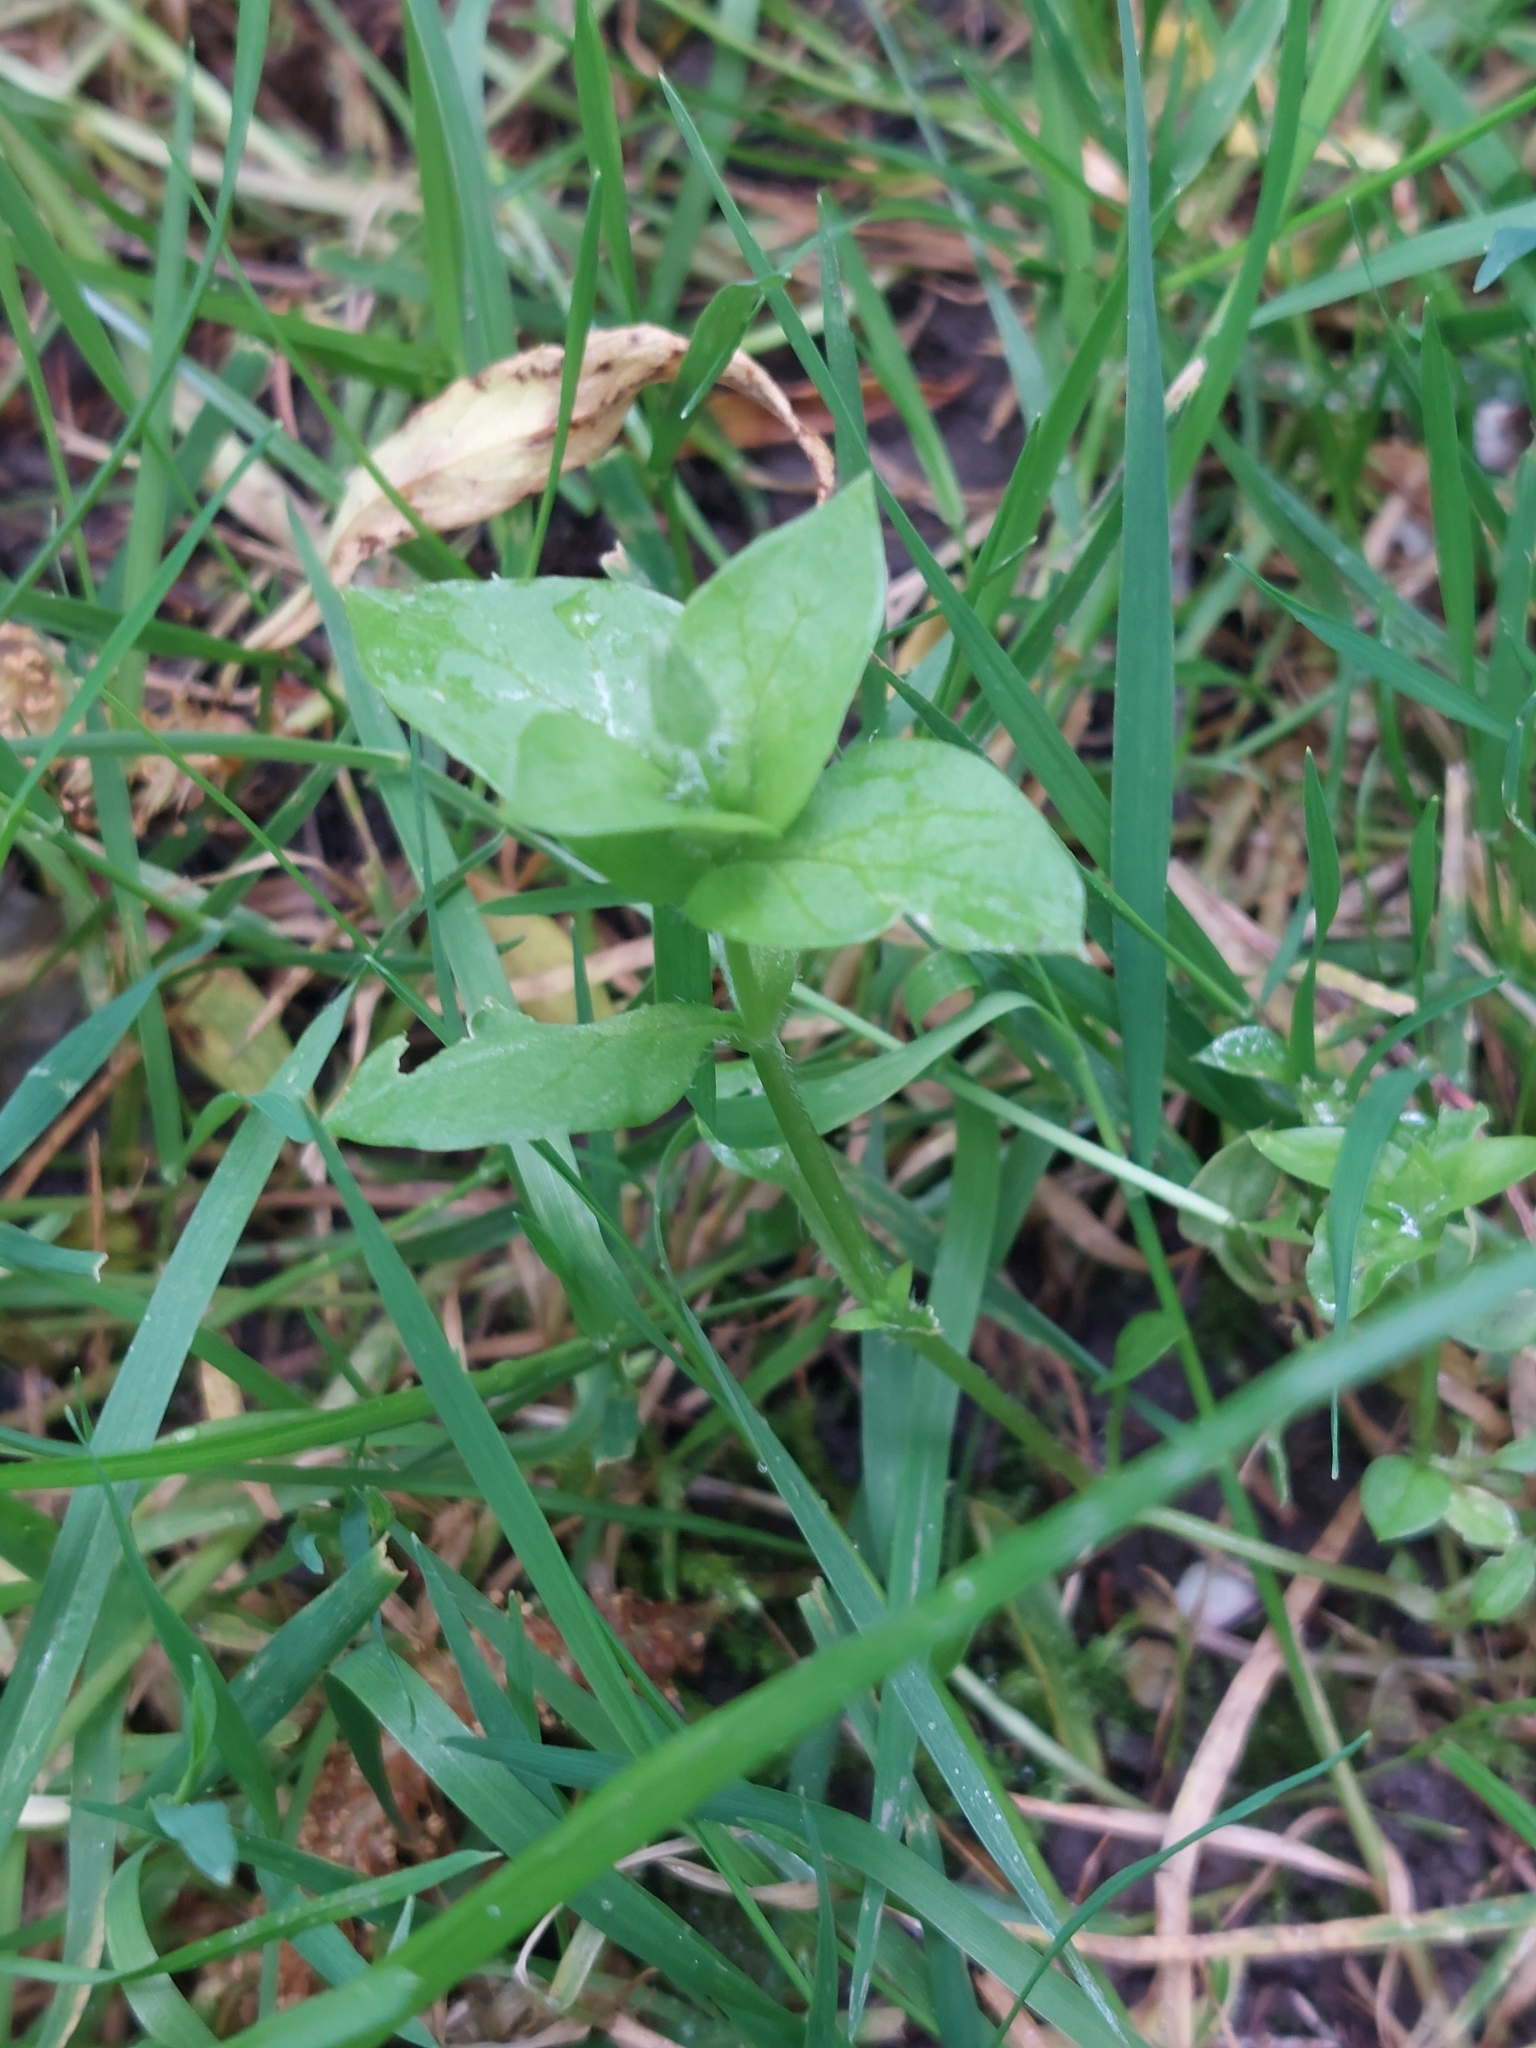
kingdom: Plantae
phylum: Tracheophyta
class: Magnoliopsida
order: Caryophyllales
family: Caryophyllaceae
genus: Stellaria
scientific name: Stellaria media
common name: Common chickweed
